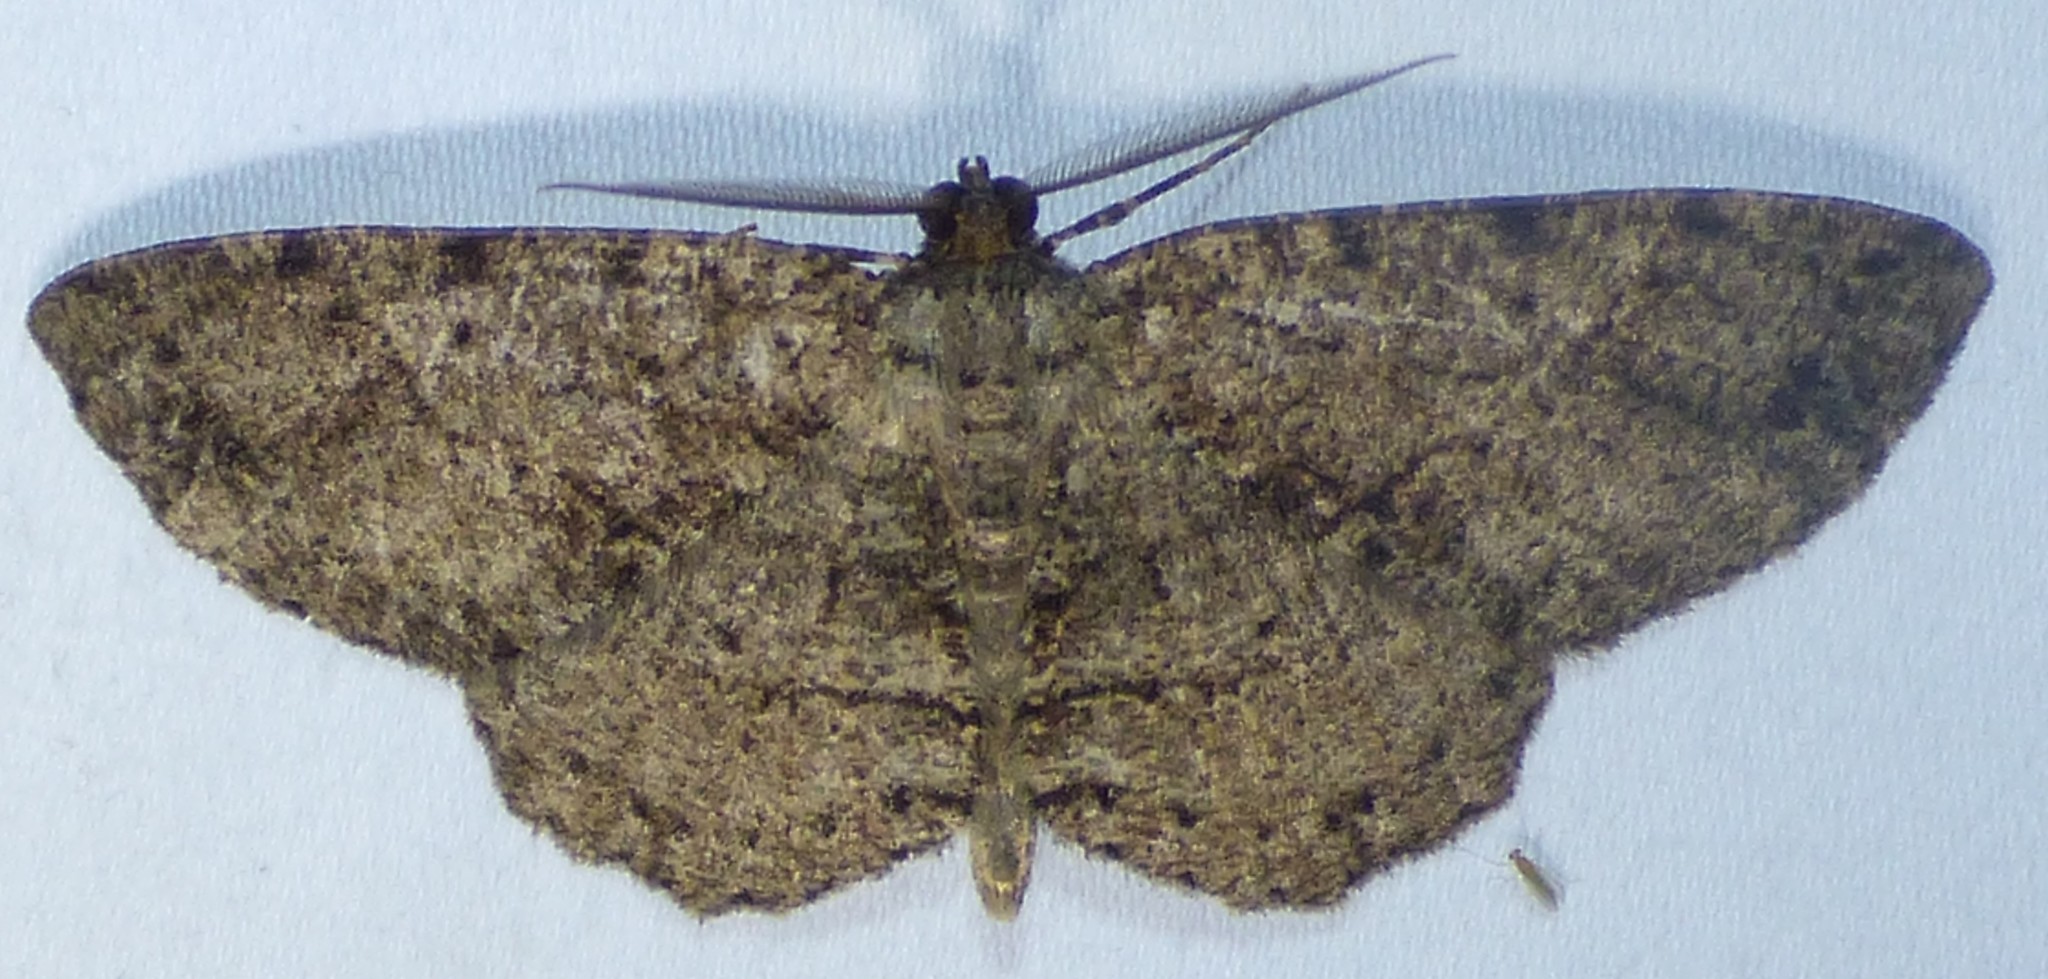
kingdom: Animalia
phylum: Arthropoda
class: Insecta
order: Lepidoptera
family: Geometridae
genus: Melanolophia
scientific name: Melanolophia canadaria
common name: Canadian melanolophia
